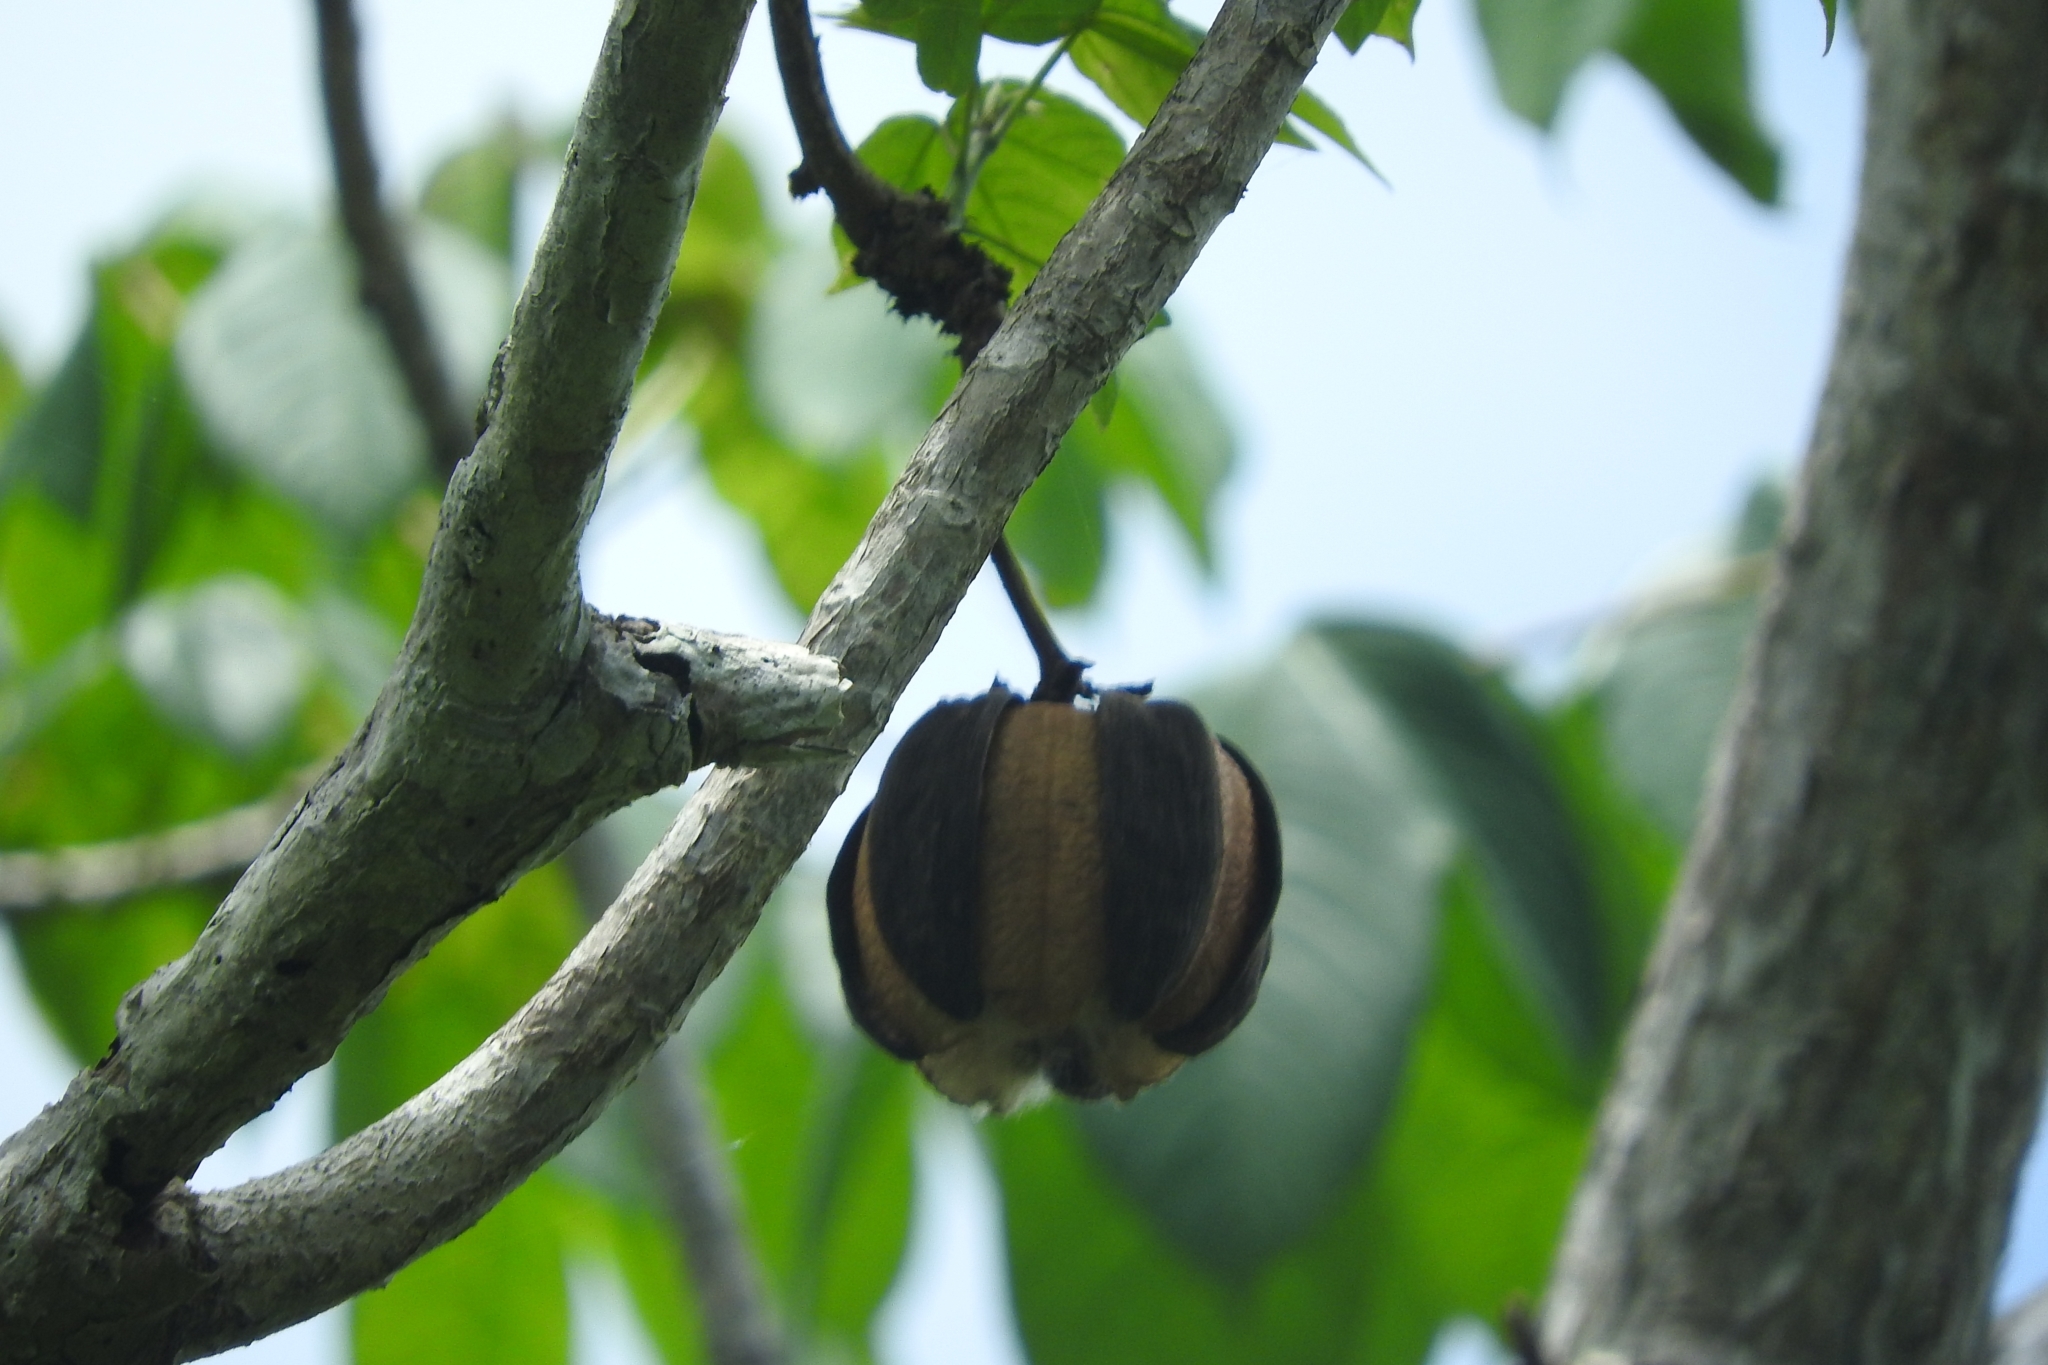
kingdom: Plantae
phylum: Tracheophyta
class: Magnoliopsida
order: Malvales
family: Cochlospermaceae
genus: Cochlospermum
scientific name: Cochlospermum vitifolium
